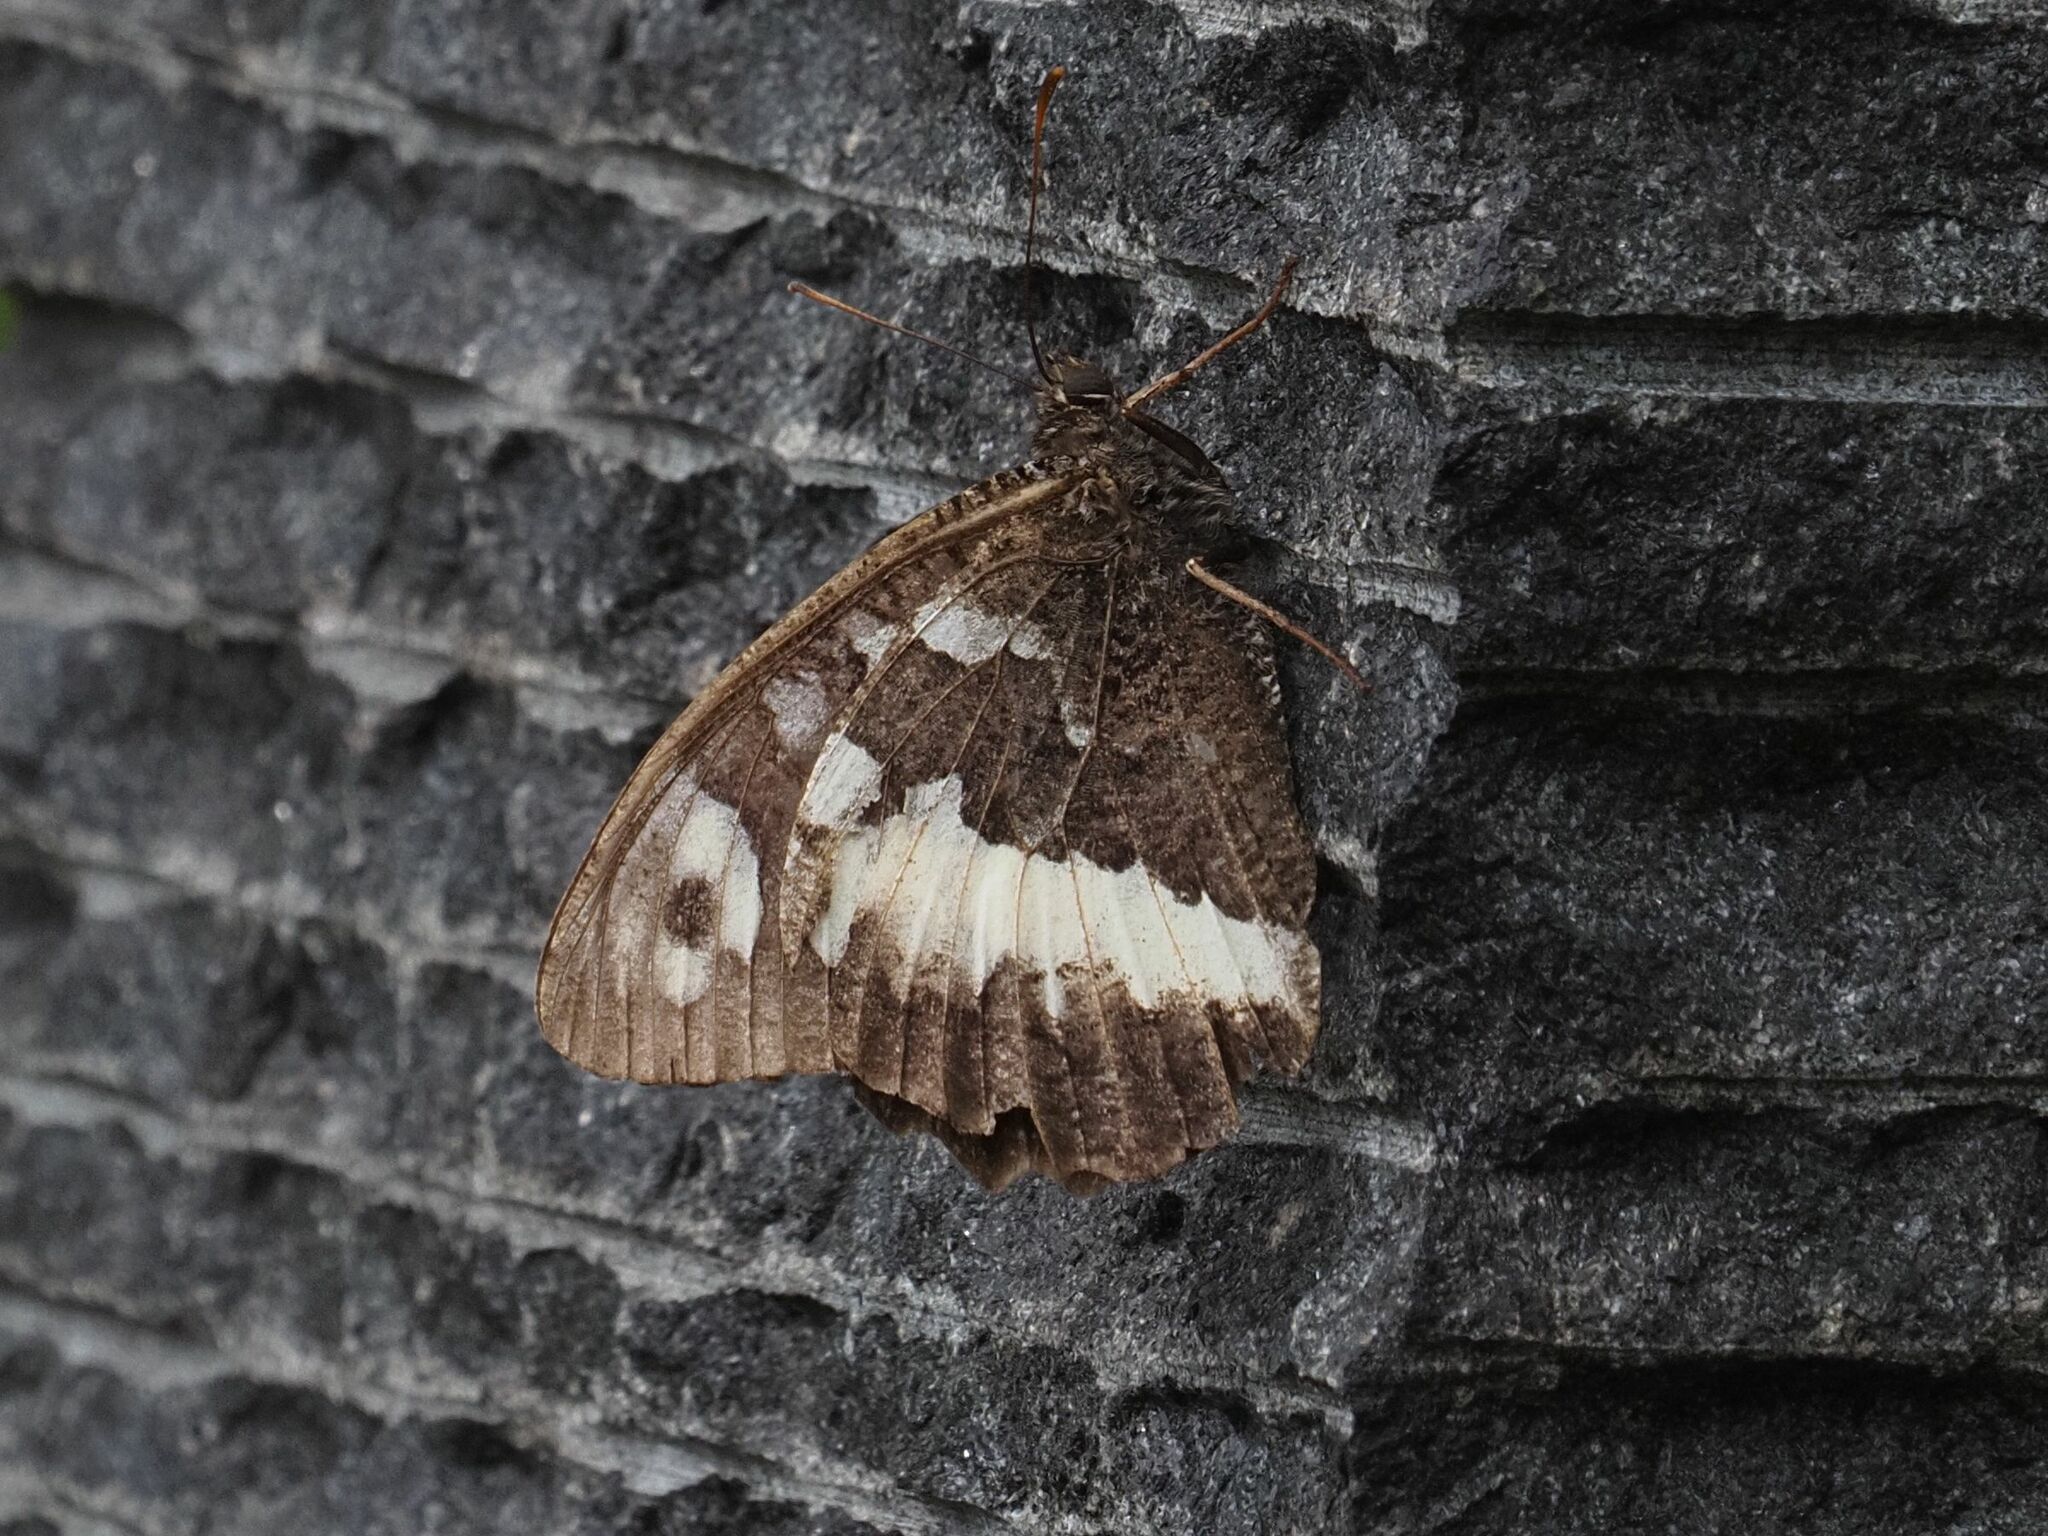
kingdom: Animalia
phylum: Arthropoda
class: Insecta
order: Lepidoptera
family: Lycaenidae
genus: Loweia
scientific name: Loweia tityrus
